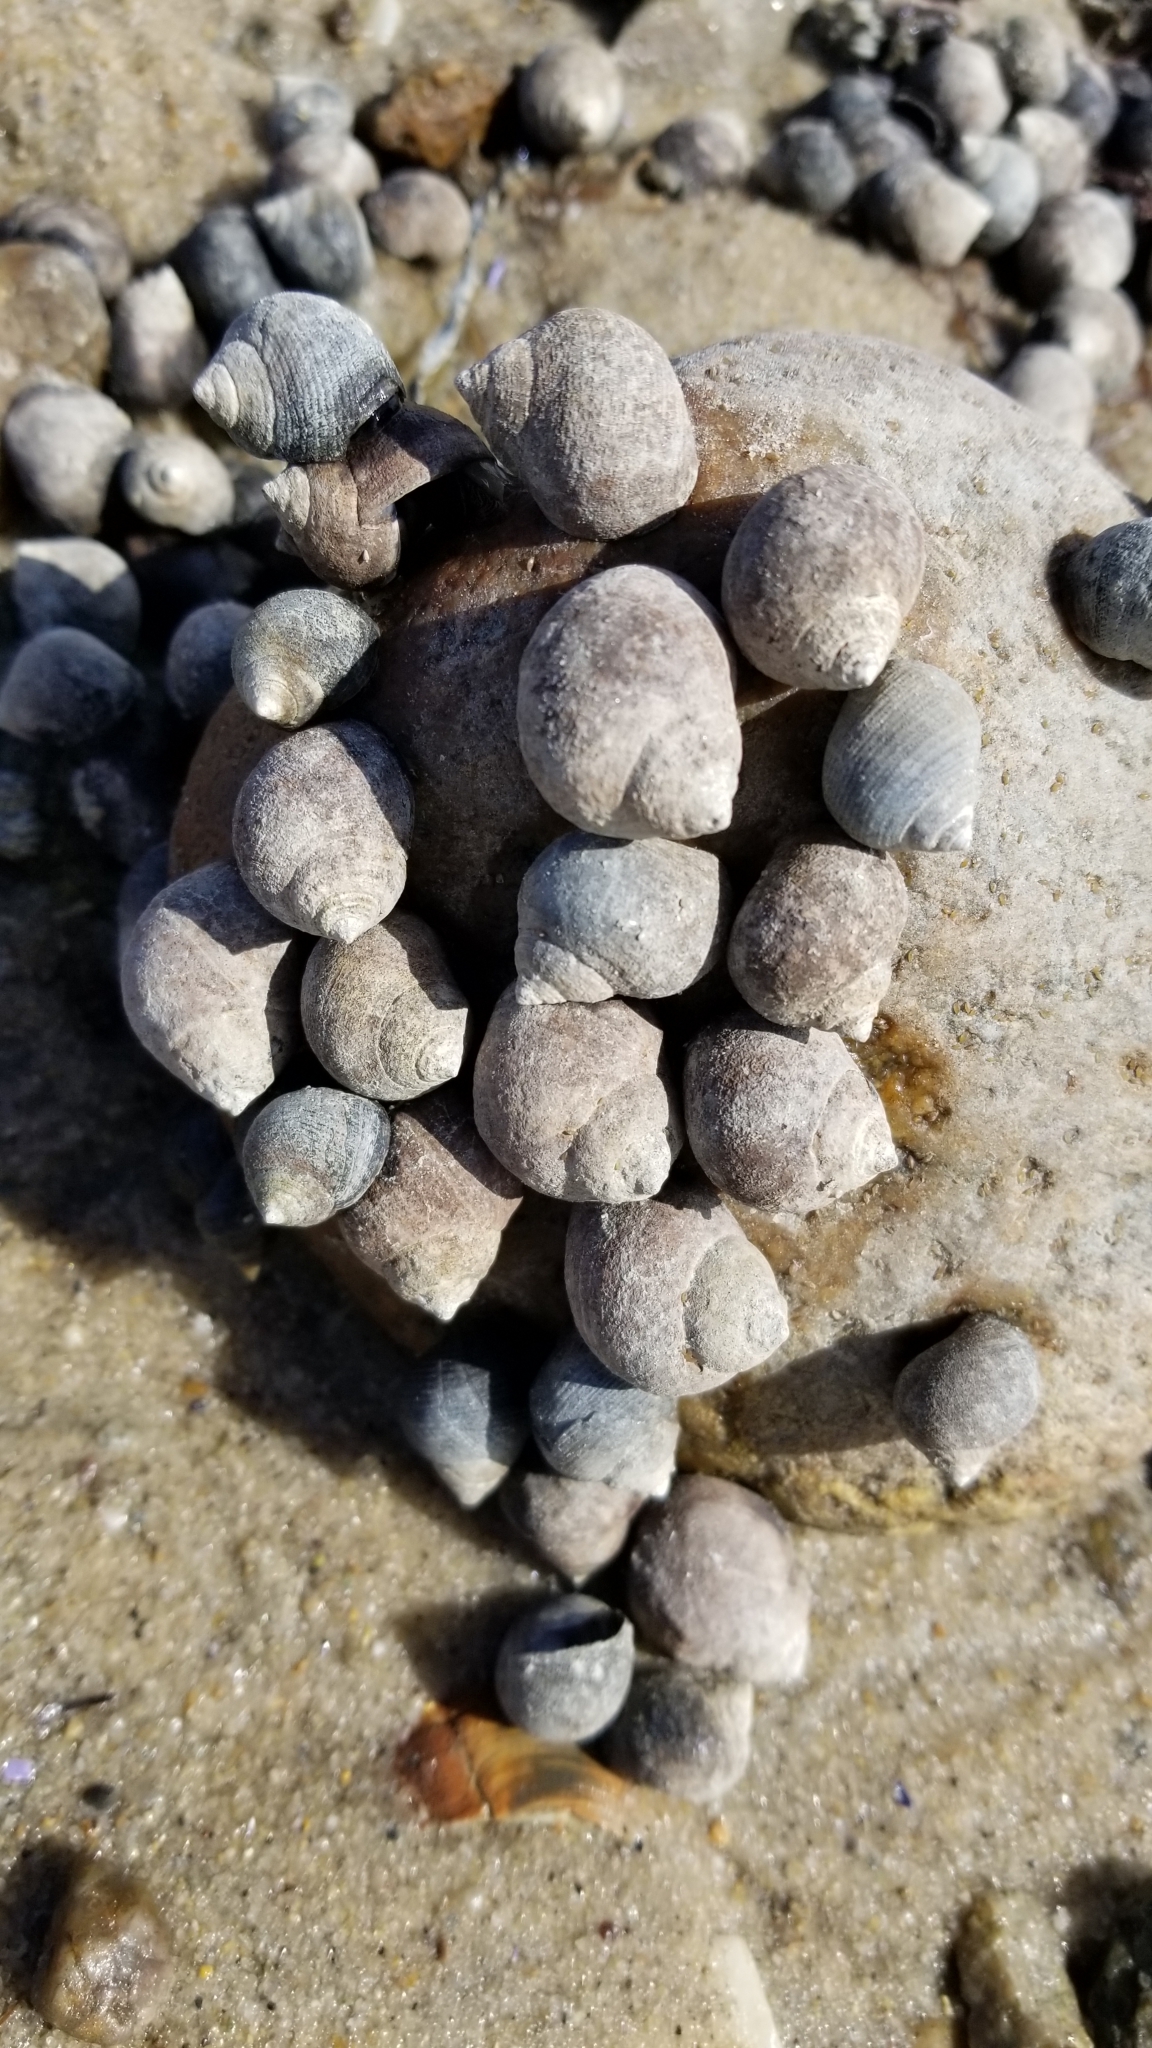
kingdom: Animalia
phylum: Mollusca
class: Gastropoda
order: Littorinimorpha
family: Littorinidae
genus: Littorina
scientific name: Littorina littorea
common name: Common periwinkle
